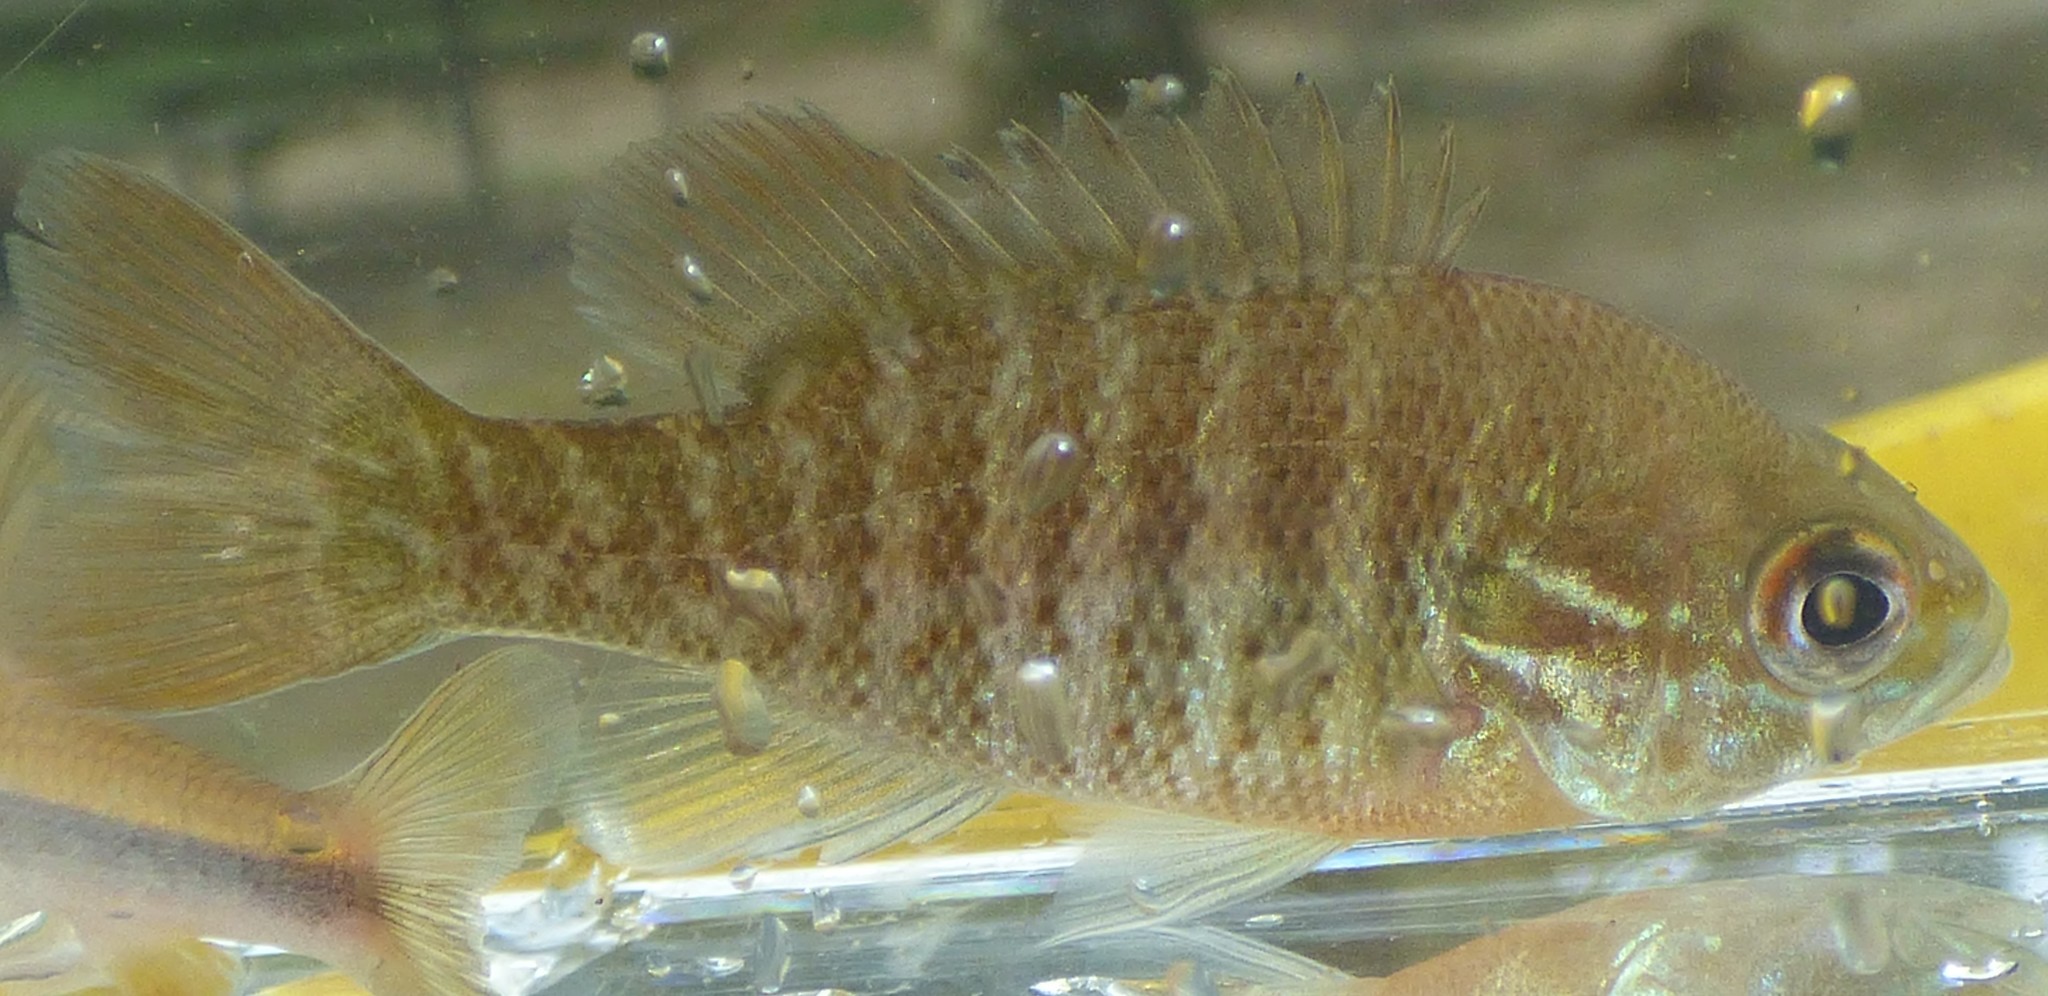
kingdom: Animalia
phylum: Chordata
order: Perciformes
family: Centrarchidae
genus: Lepomis
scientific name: Lepomis auritus
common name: Redbreast sunfish
